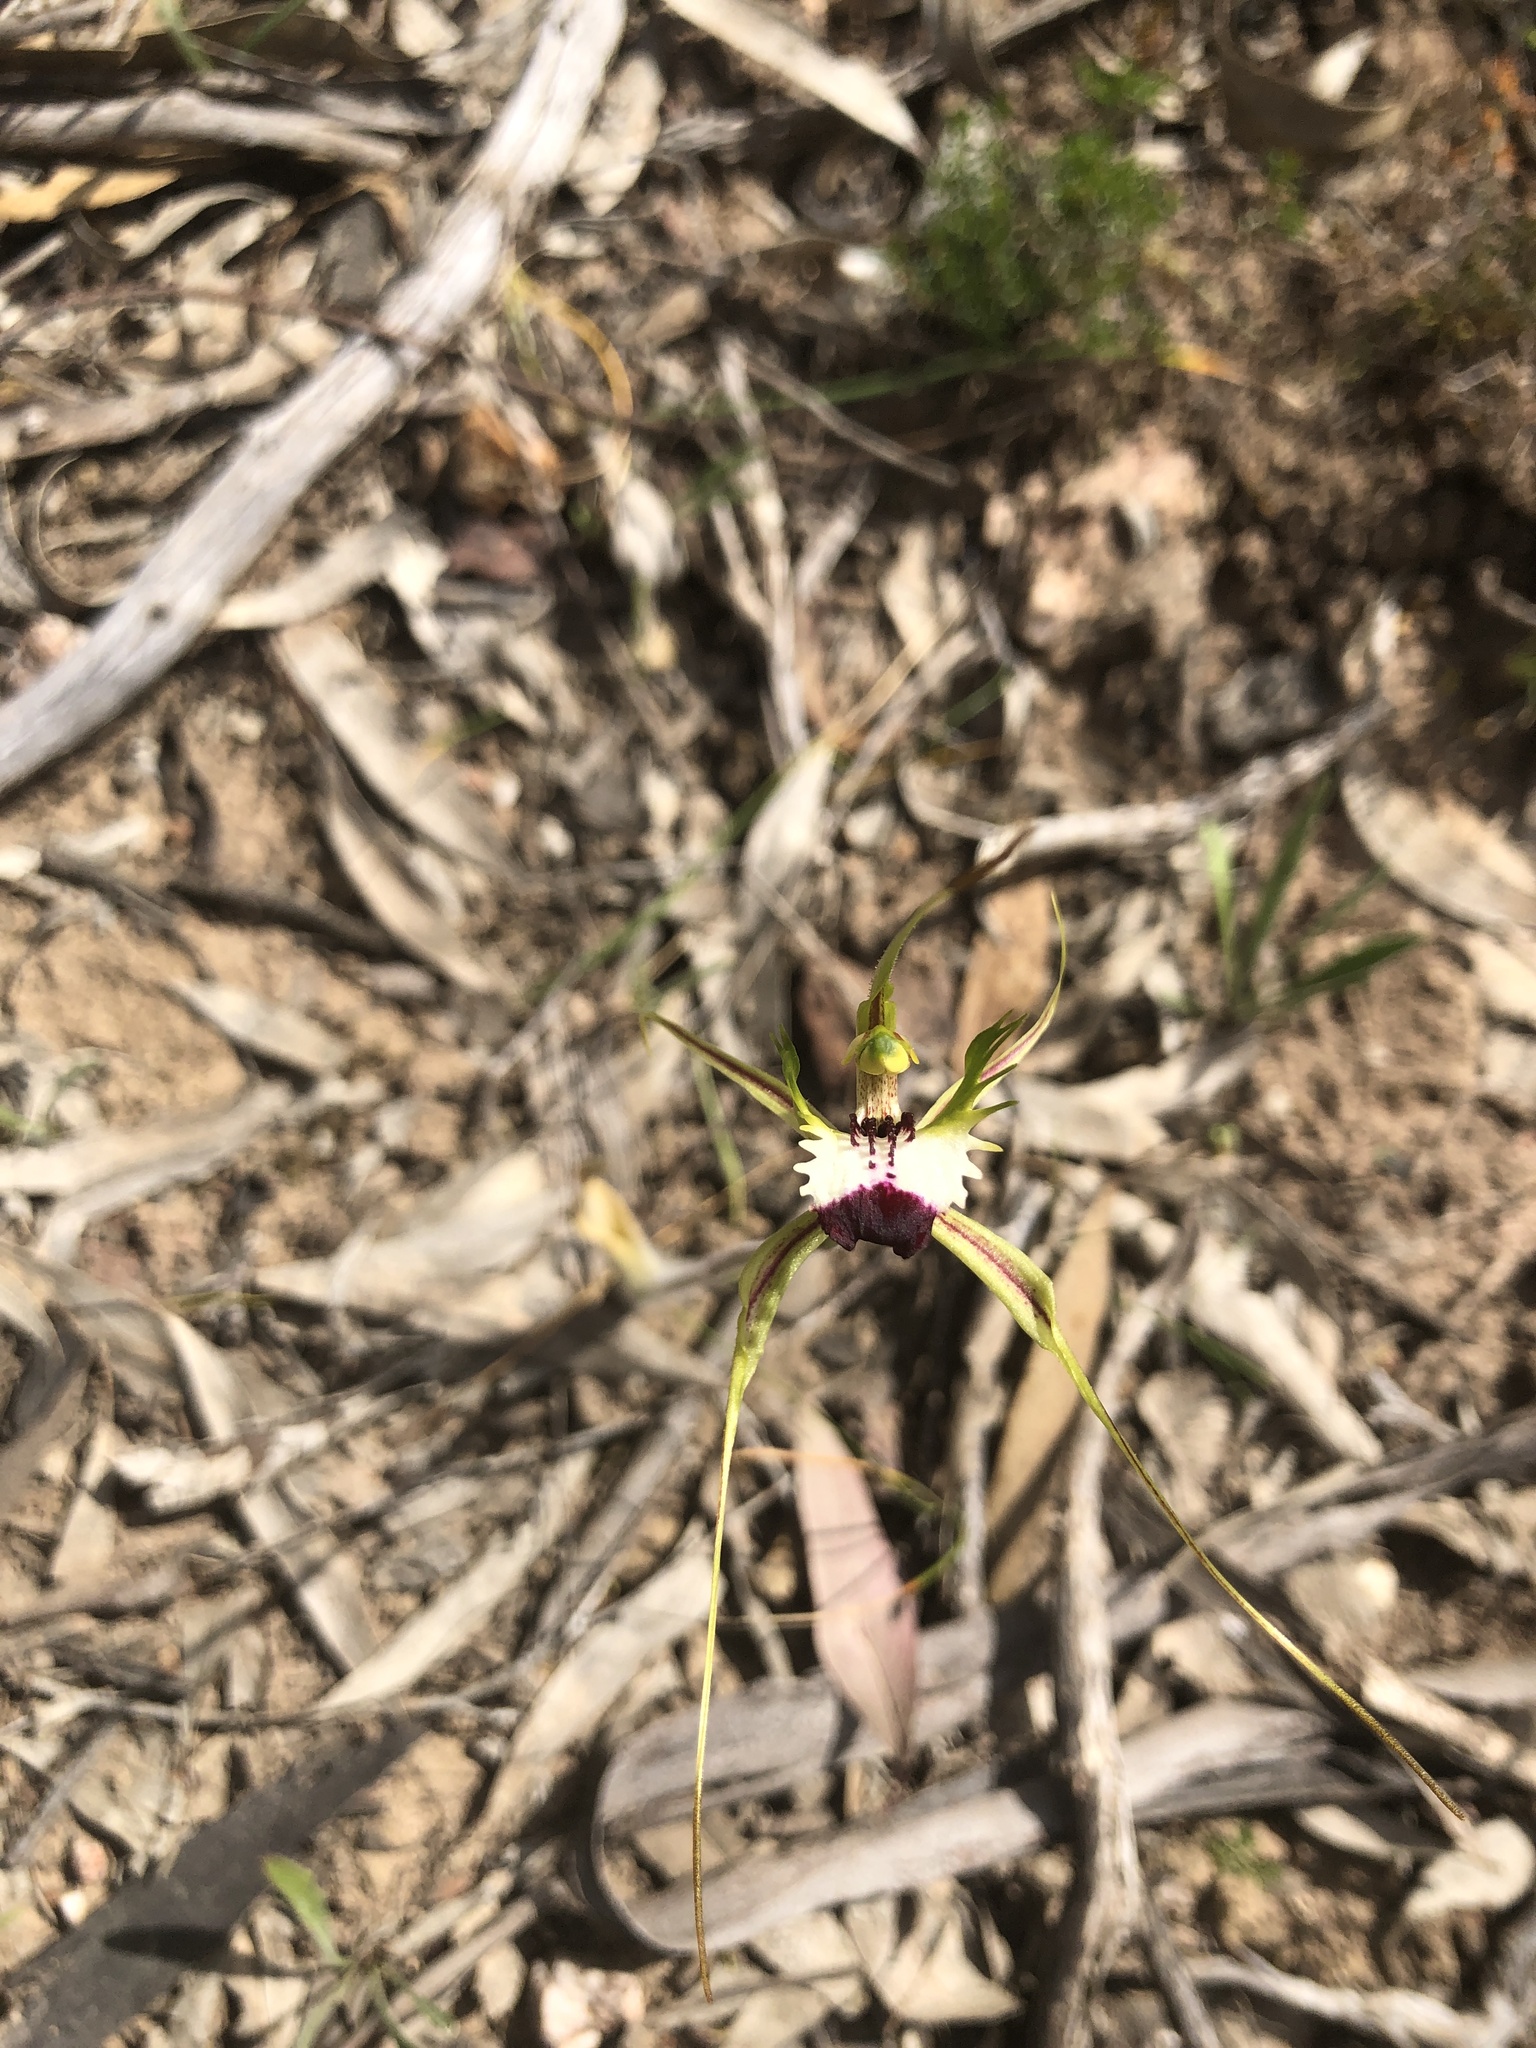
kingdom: Plantae
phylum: Tracheophyta
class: Liliopsida
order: Asparagales
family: Orchidaceae
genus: Caladenia
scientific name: Caladenia tentaculata
